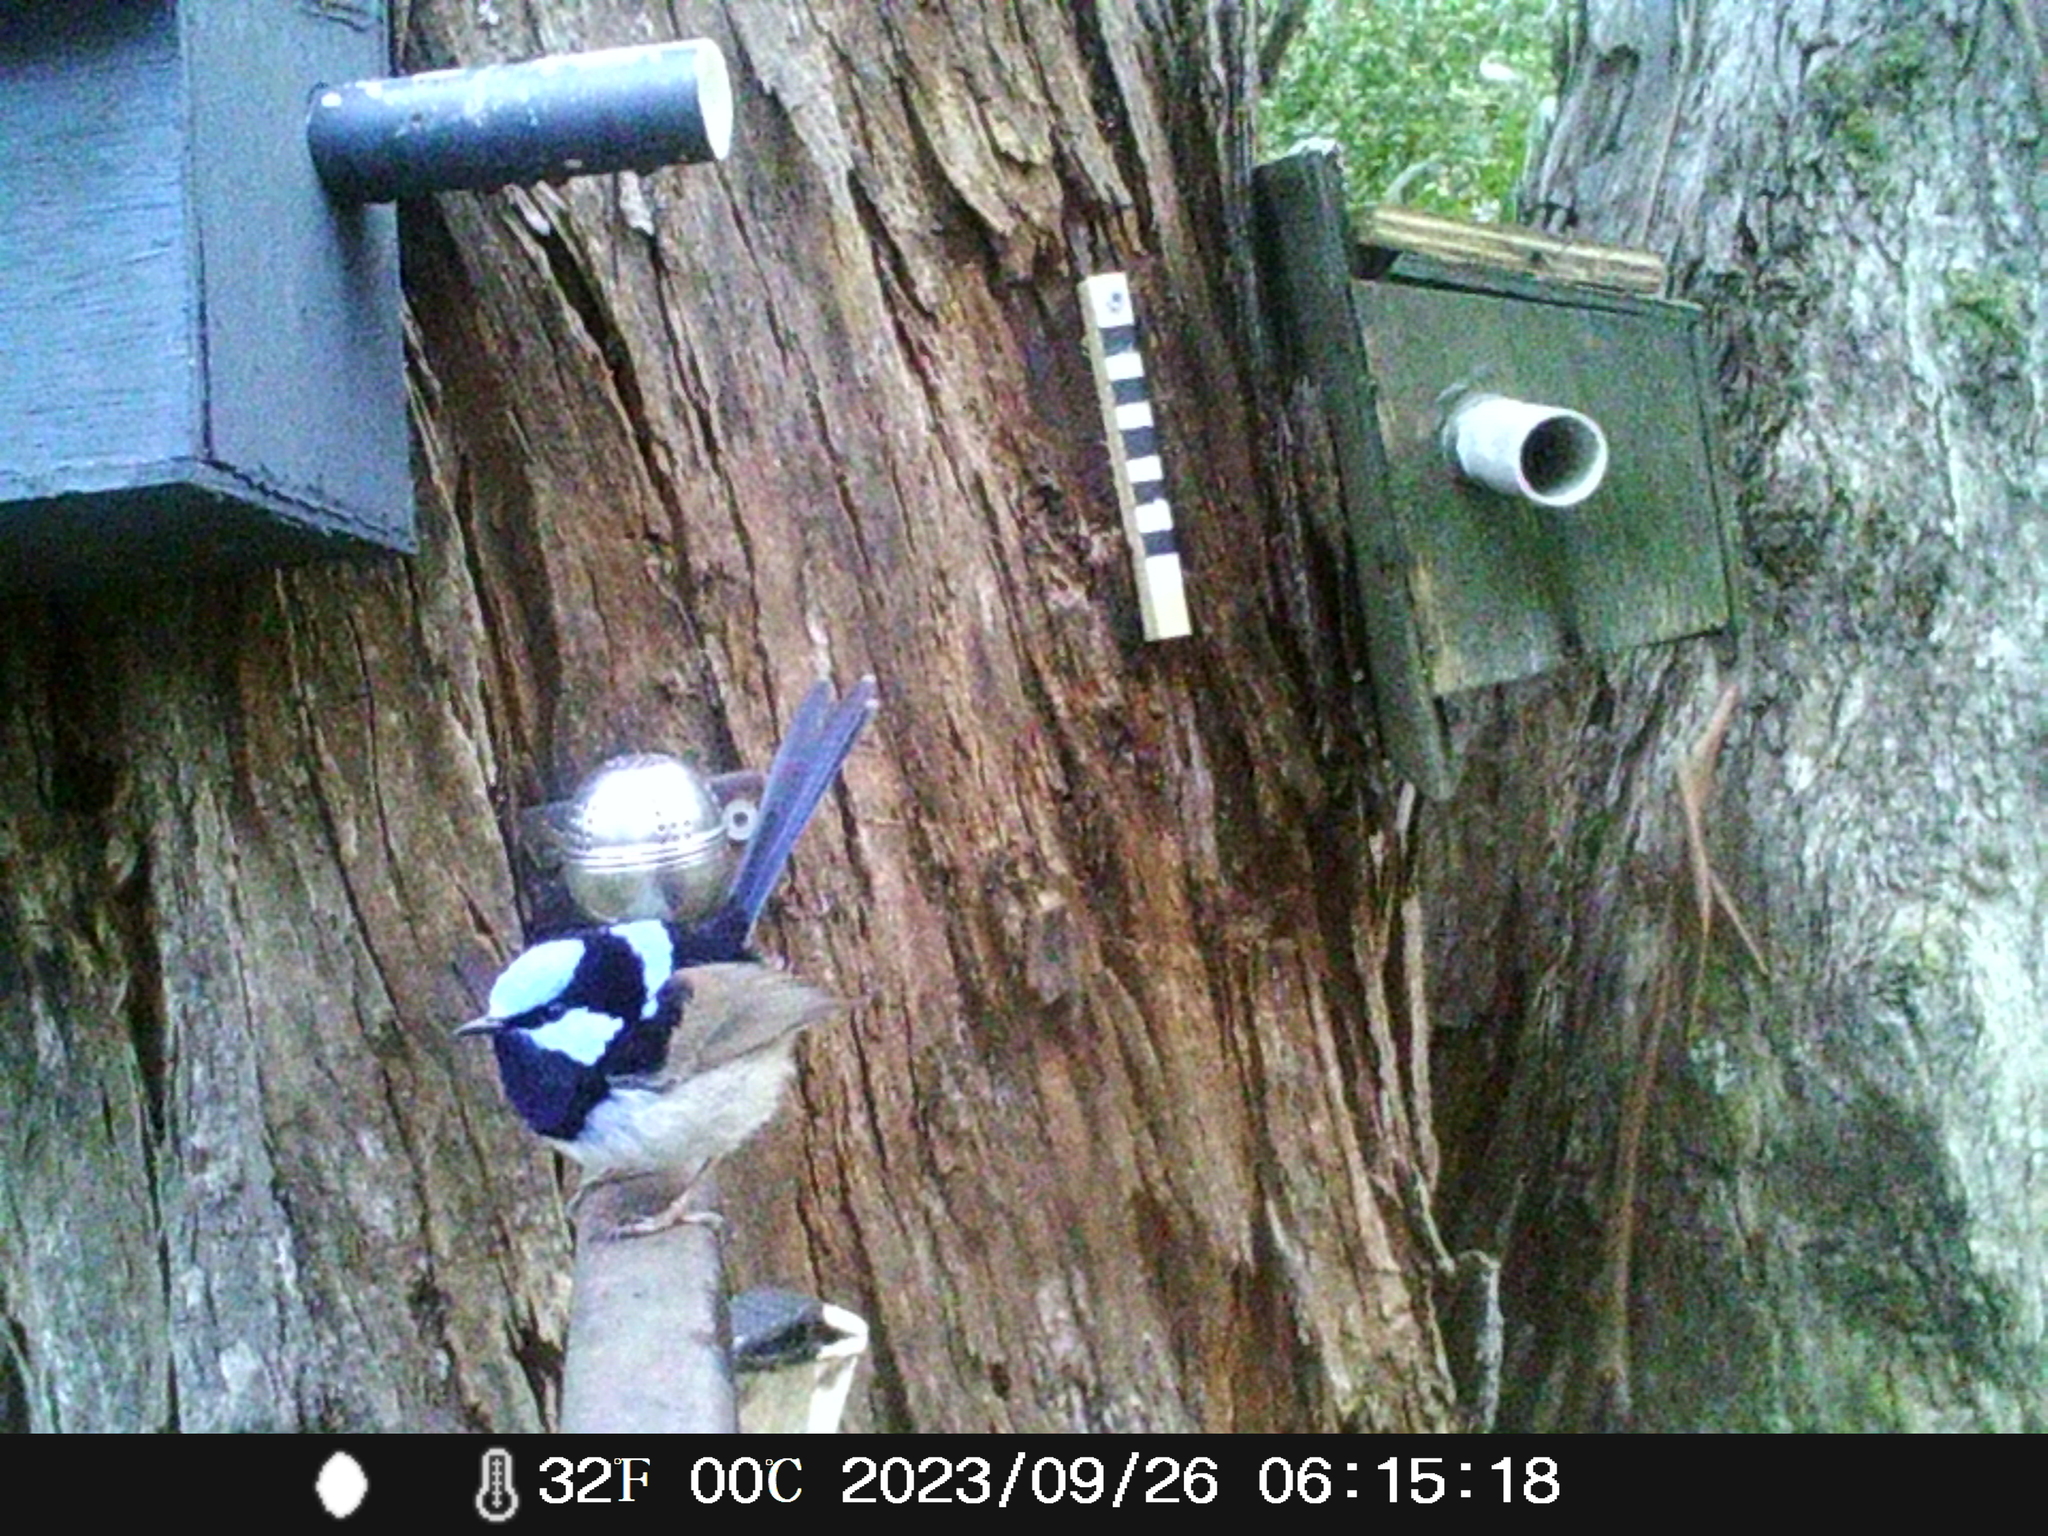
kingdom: Animalia
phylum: Chordata
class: Aves
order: Passeriformes
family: Maluridae
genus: Malurus
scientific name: Malurus cyaneus
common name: Superb fairywren
